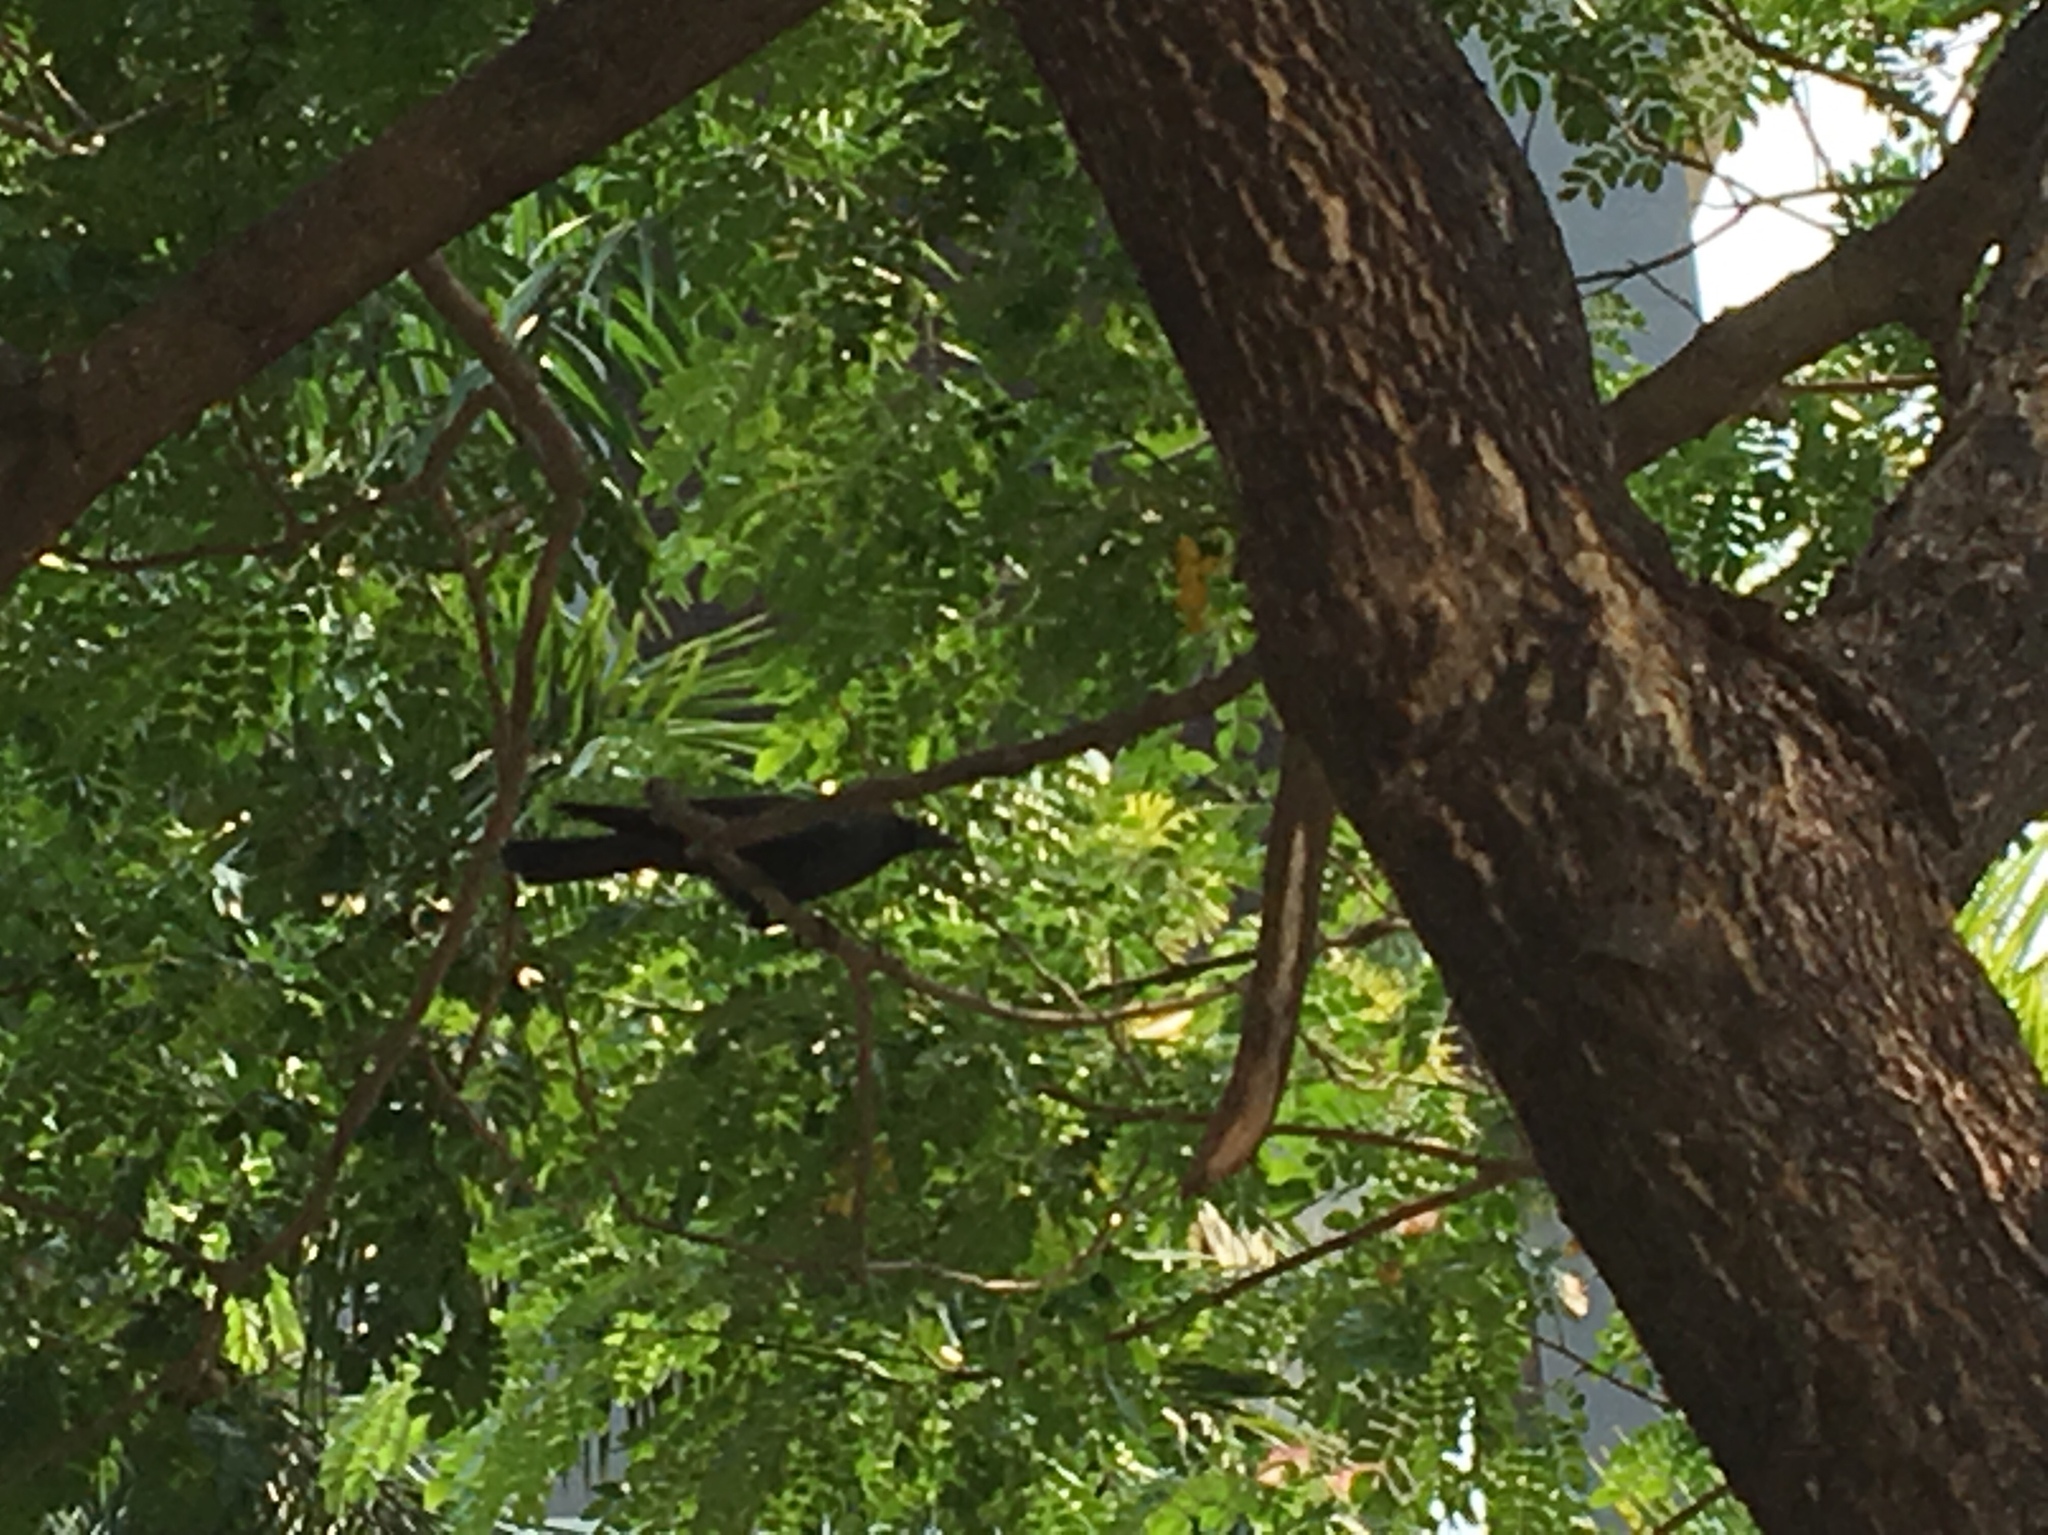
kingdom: Animalia
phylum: Chordata
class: Aves
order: Passeriformes
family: Corvidae
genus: Corvus
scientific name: Corvus splendens
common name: House crow
